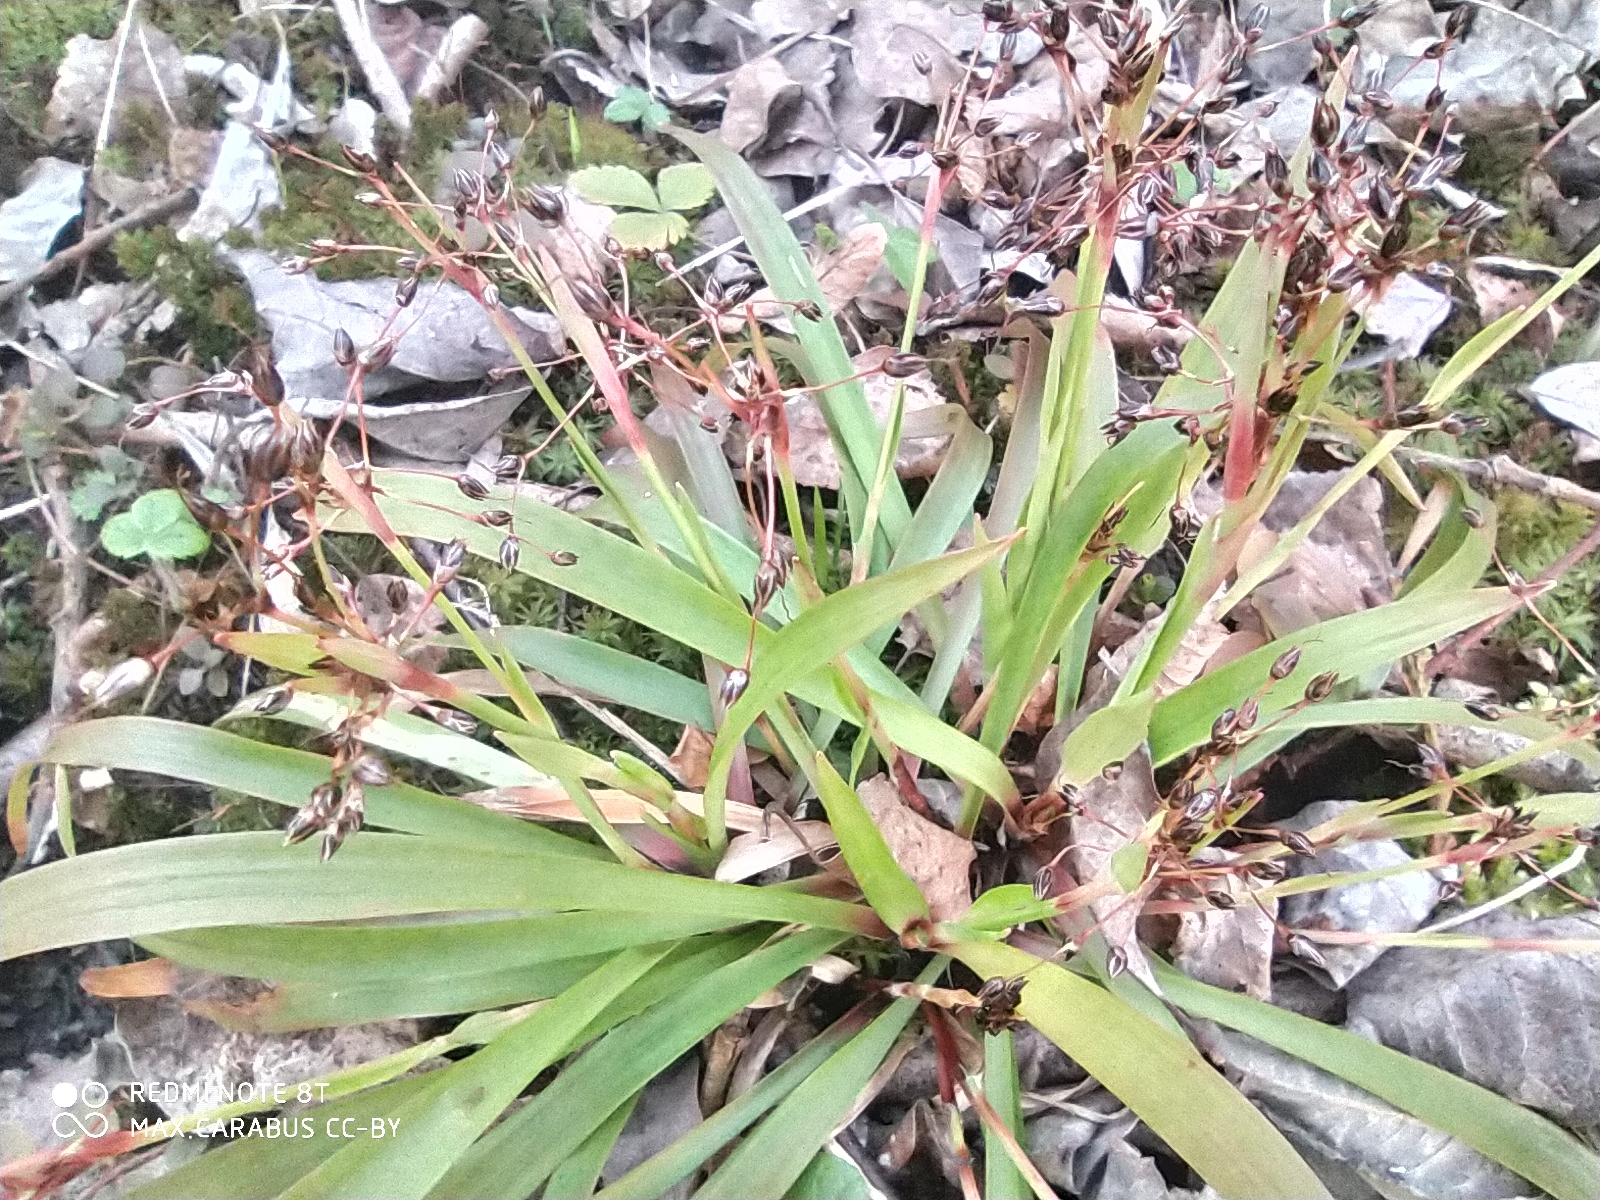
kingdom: Plantae
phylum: Tracheophyta
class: Liliopsida
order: Poales
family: Juncaceae
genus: Luzula
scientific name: Luzula pilosa
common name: Hairy wood-rush
